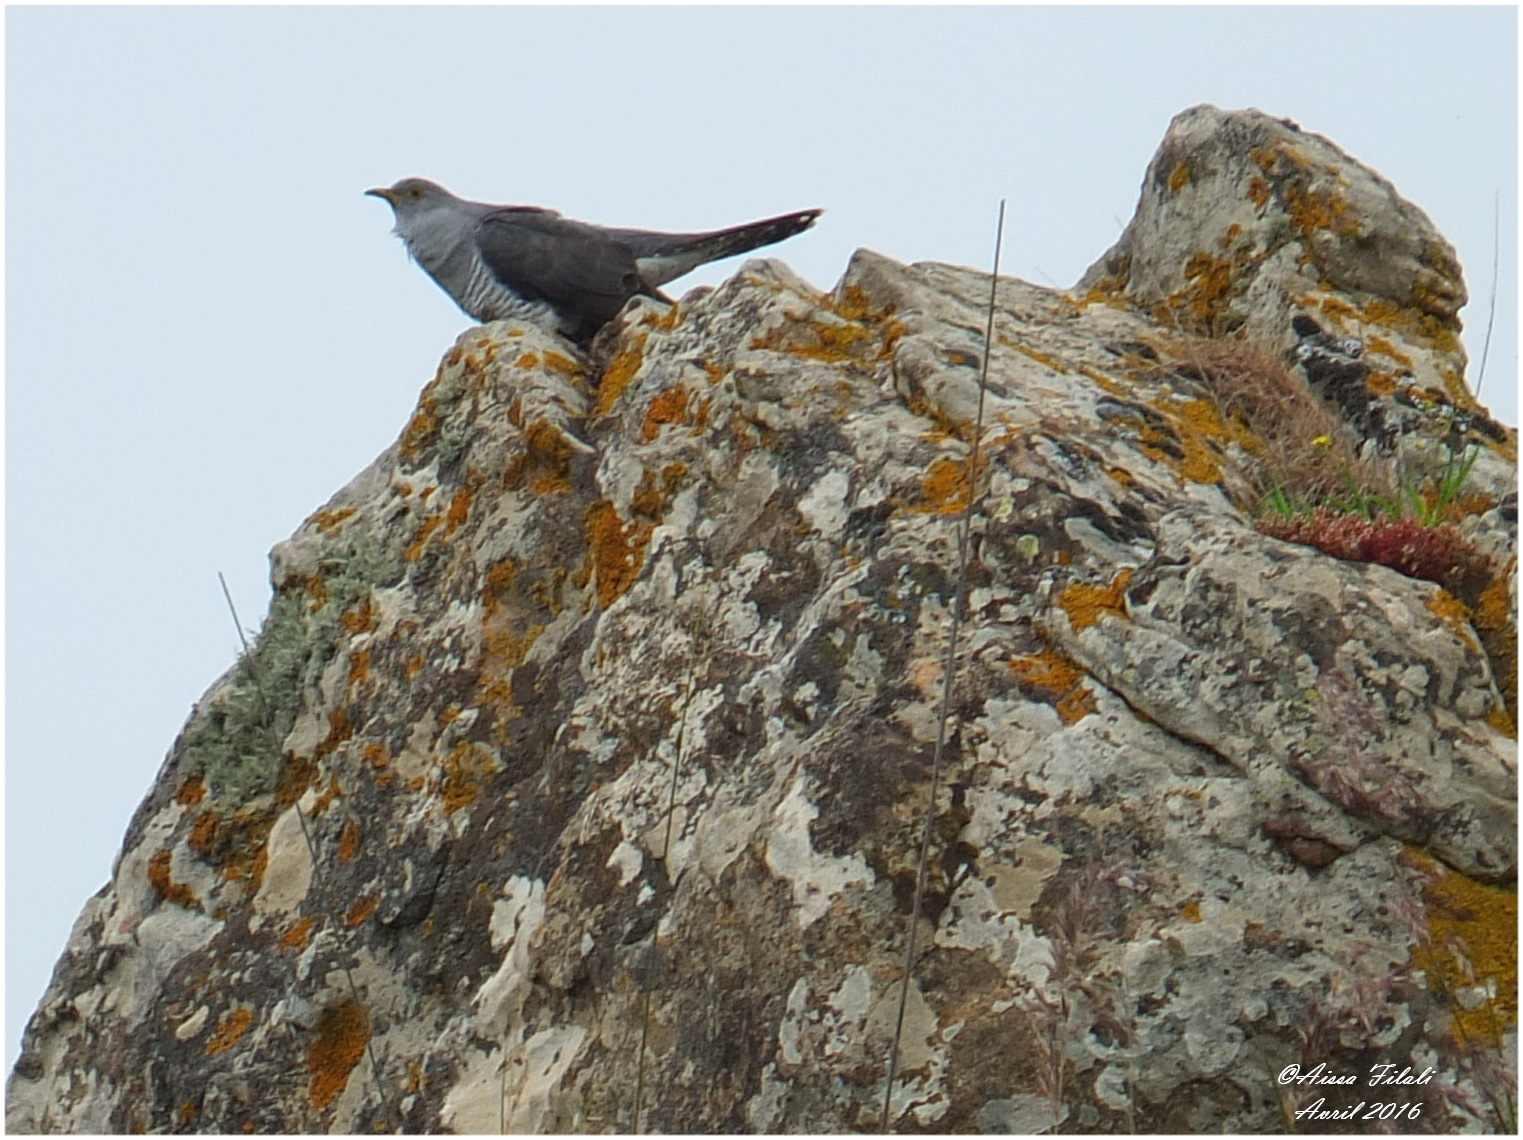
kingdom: Animalia
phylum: Chordata
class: Aves
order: Cuculiformes
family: Cuculidae
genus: Cuculus
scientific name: Cuculus canorus
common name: Common cuckoo
